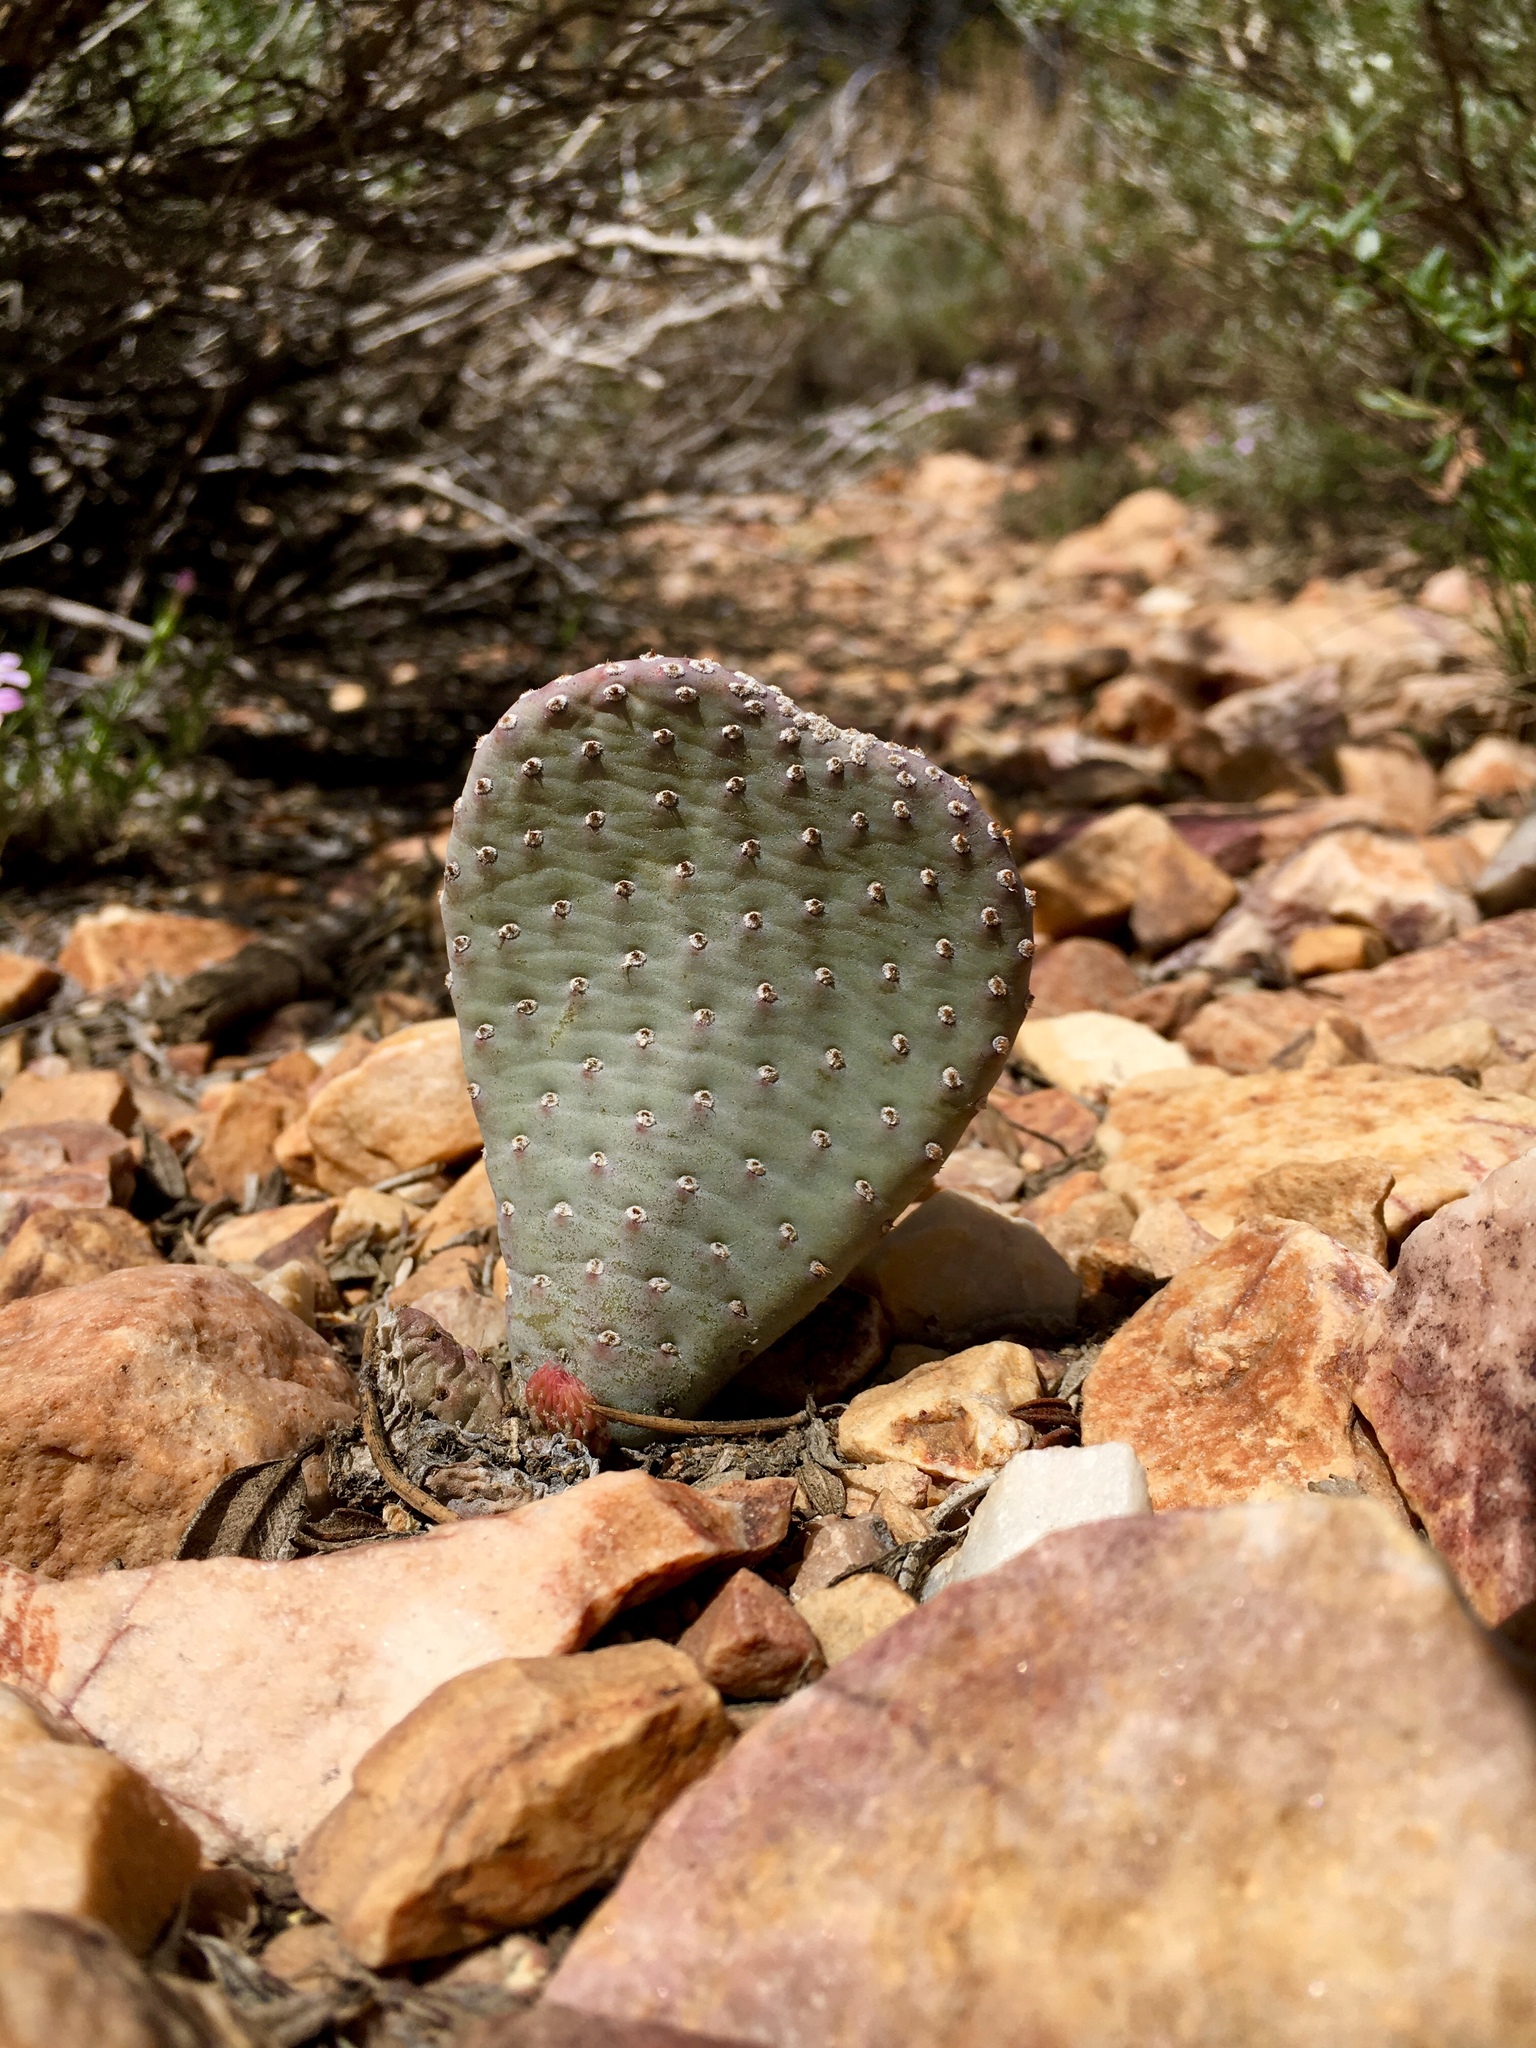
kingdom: Plantae
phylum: Tracheophyta
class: Magnoliopsida
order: Caryophyllales
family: Cactaceae
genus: Opuntia
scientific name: Opuntia basilaris
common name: Beavertail prickly-pear
